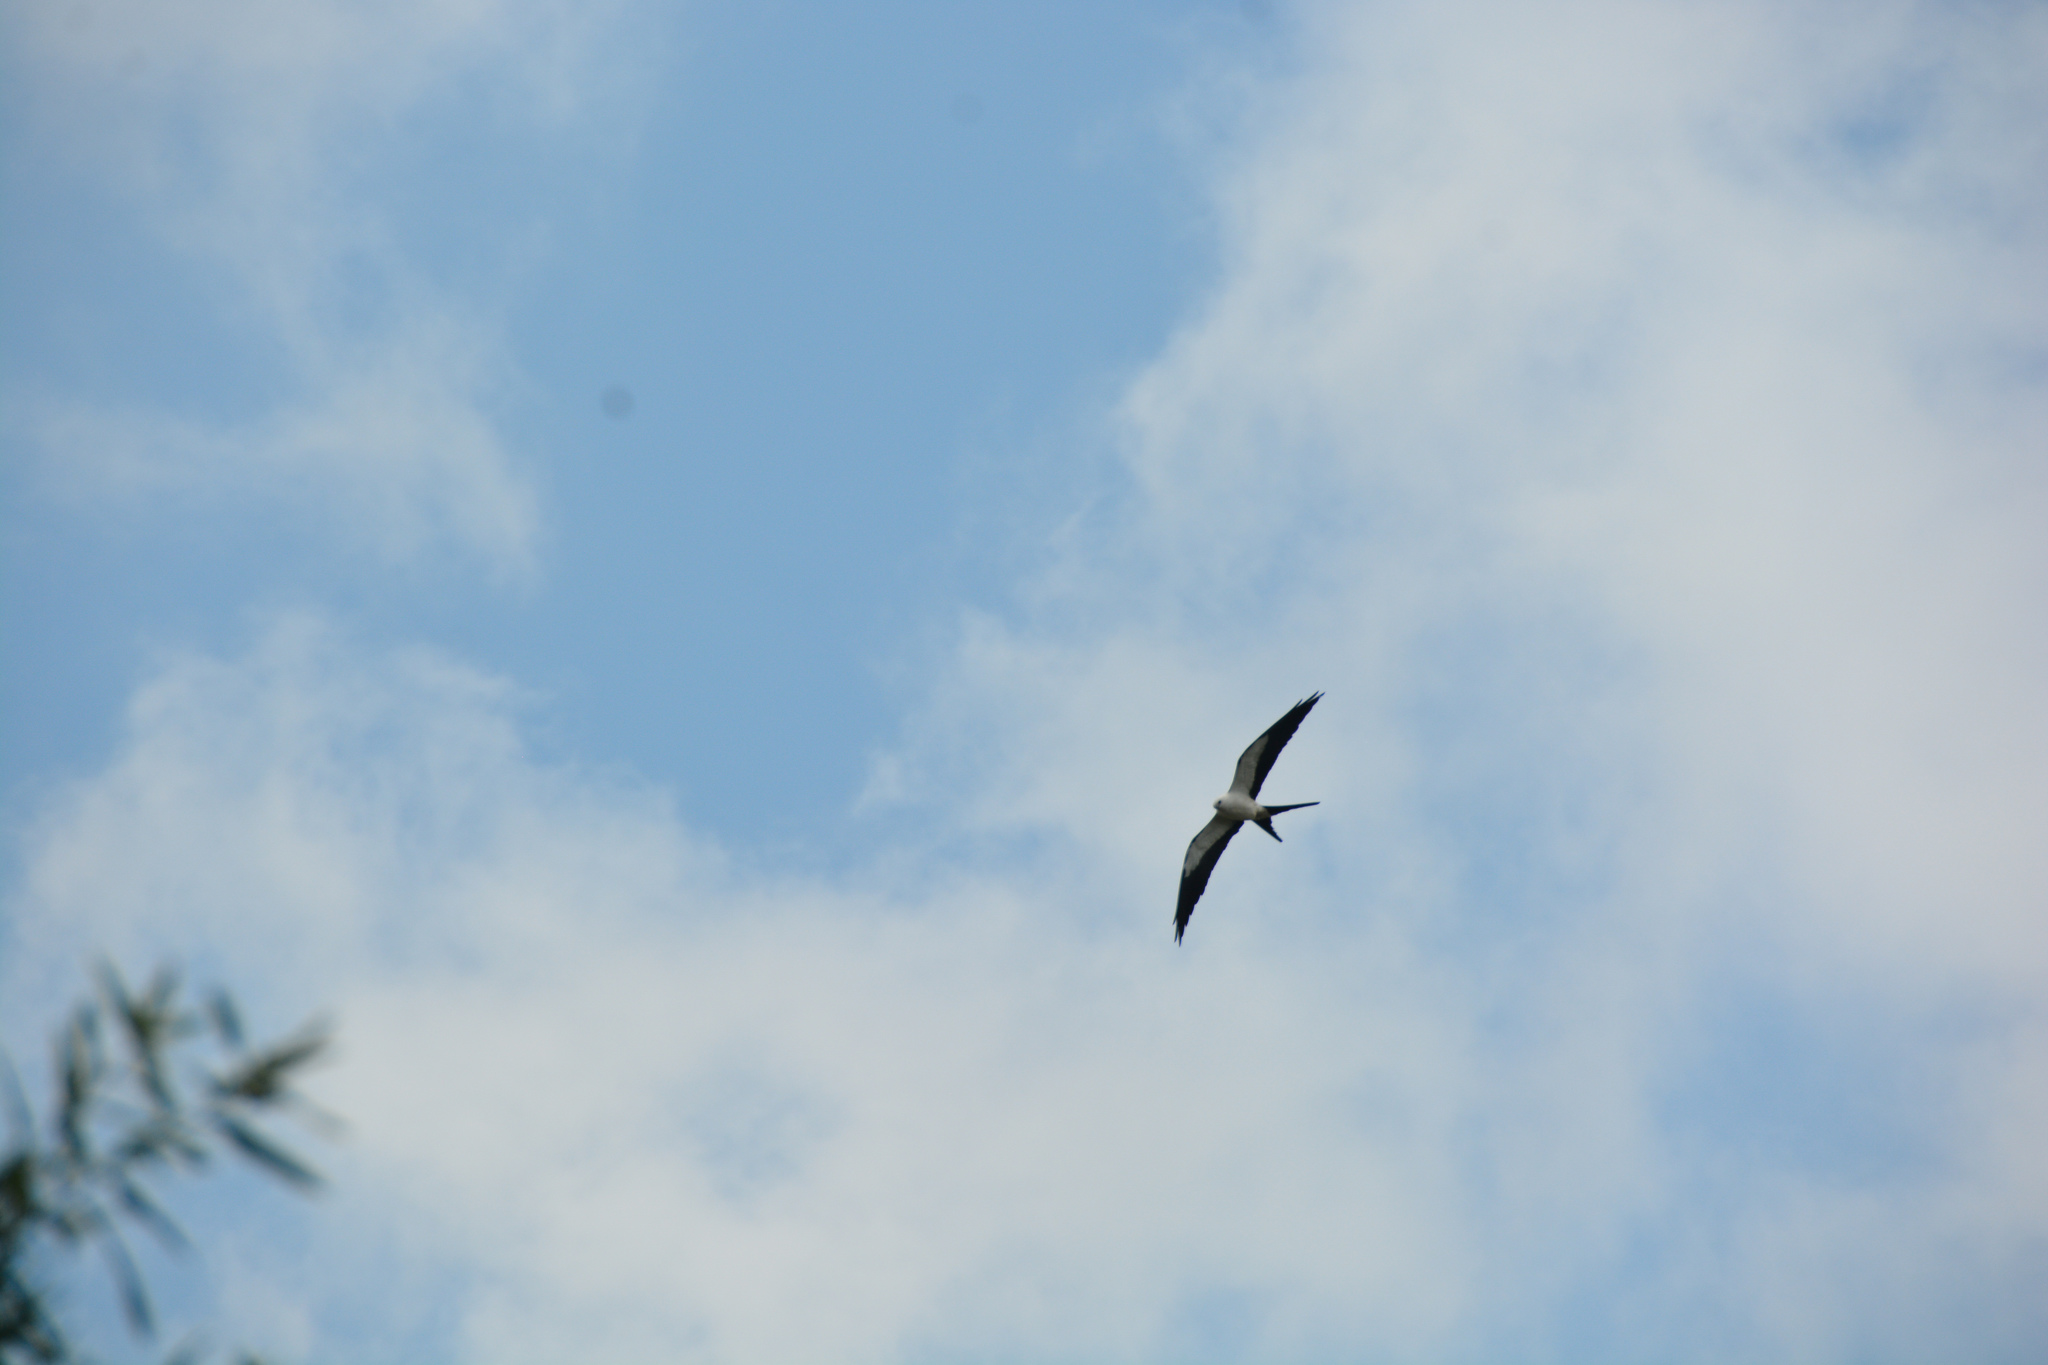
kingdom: Animalia
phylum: Chordata
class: Aves
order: Accipitriformes
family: Accipitridae
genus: Elanoides
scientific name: Elanoides forficatus
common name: Swallow-tailed kite
